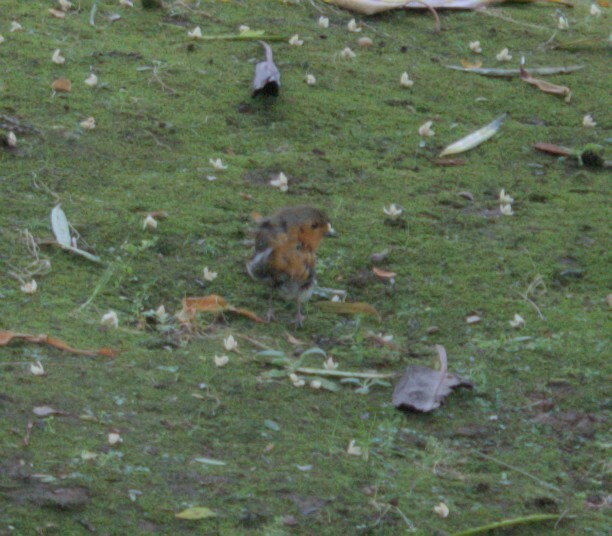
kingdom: Animalia
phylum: Chordata
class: Aves
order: Passeriformes
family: Muscicapidae
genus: Erithacus
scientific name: Erithacus rubecula
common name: European robin
